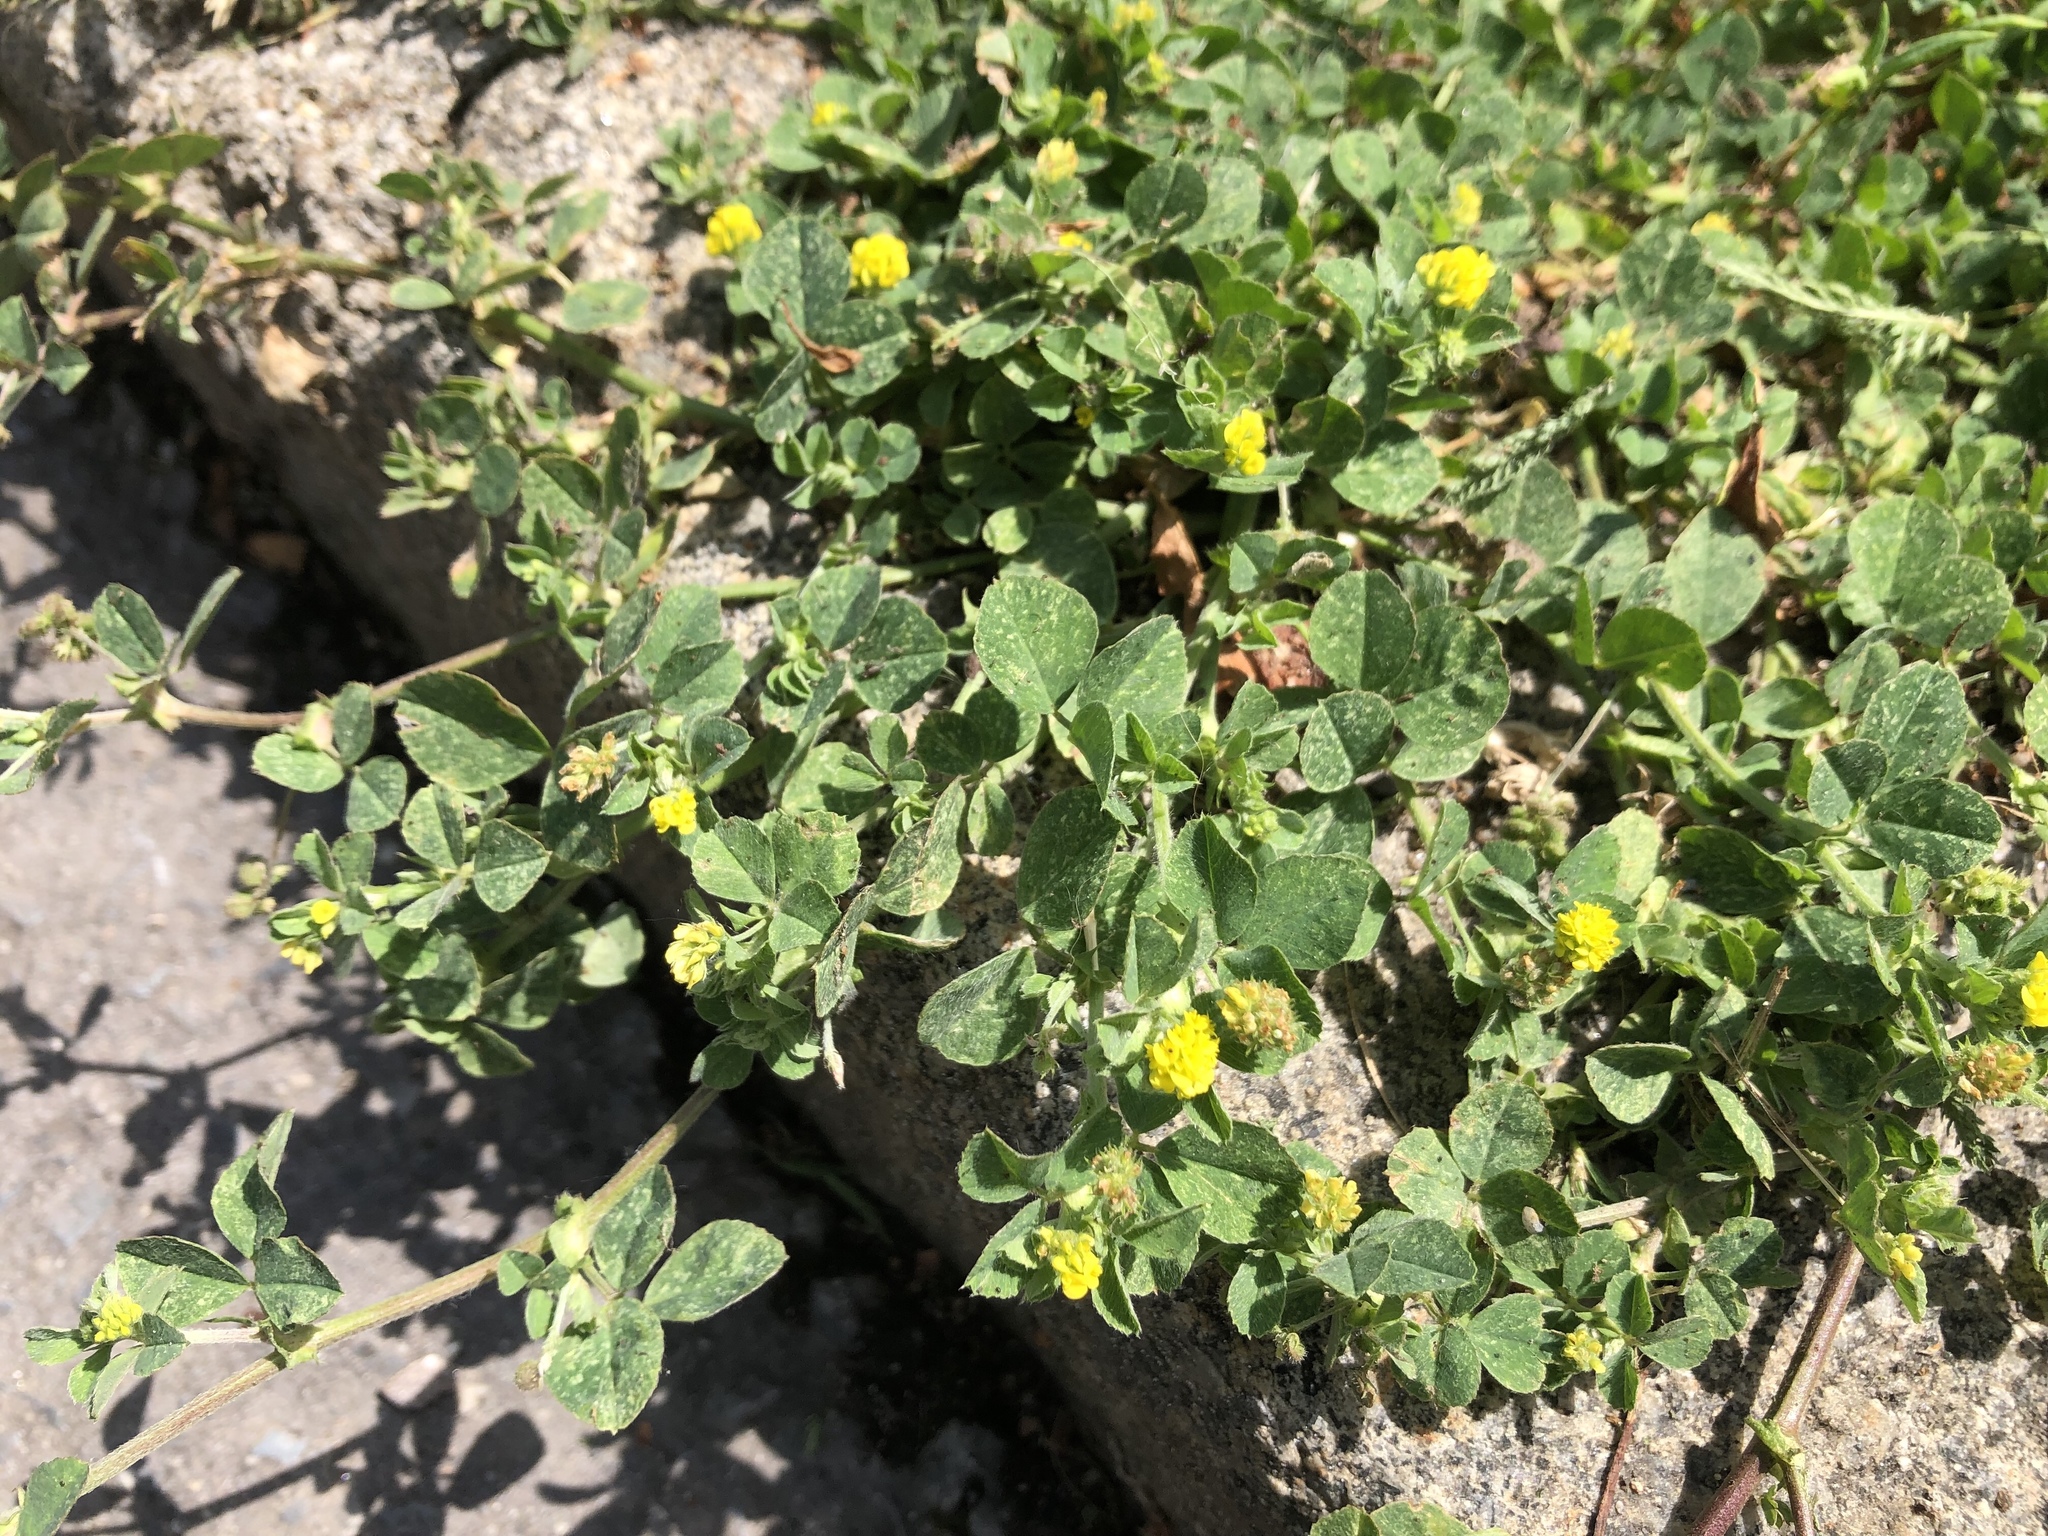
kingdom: Plantae
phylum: Tracheophyta
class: Magnoliopsida
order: Fabales
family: Fabaceae
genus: Medicago
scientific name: Medicago lupulina
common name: Black medick
